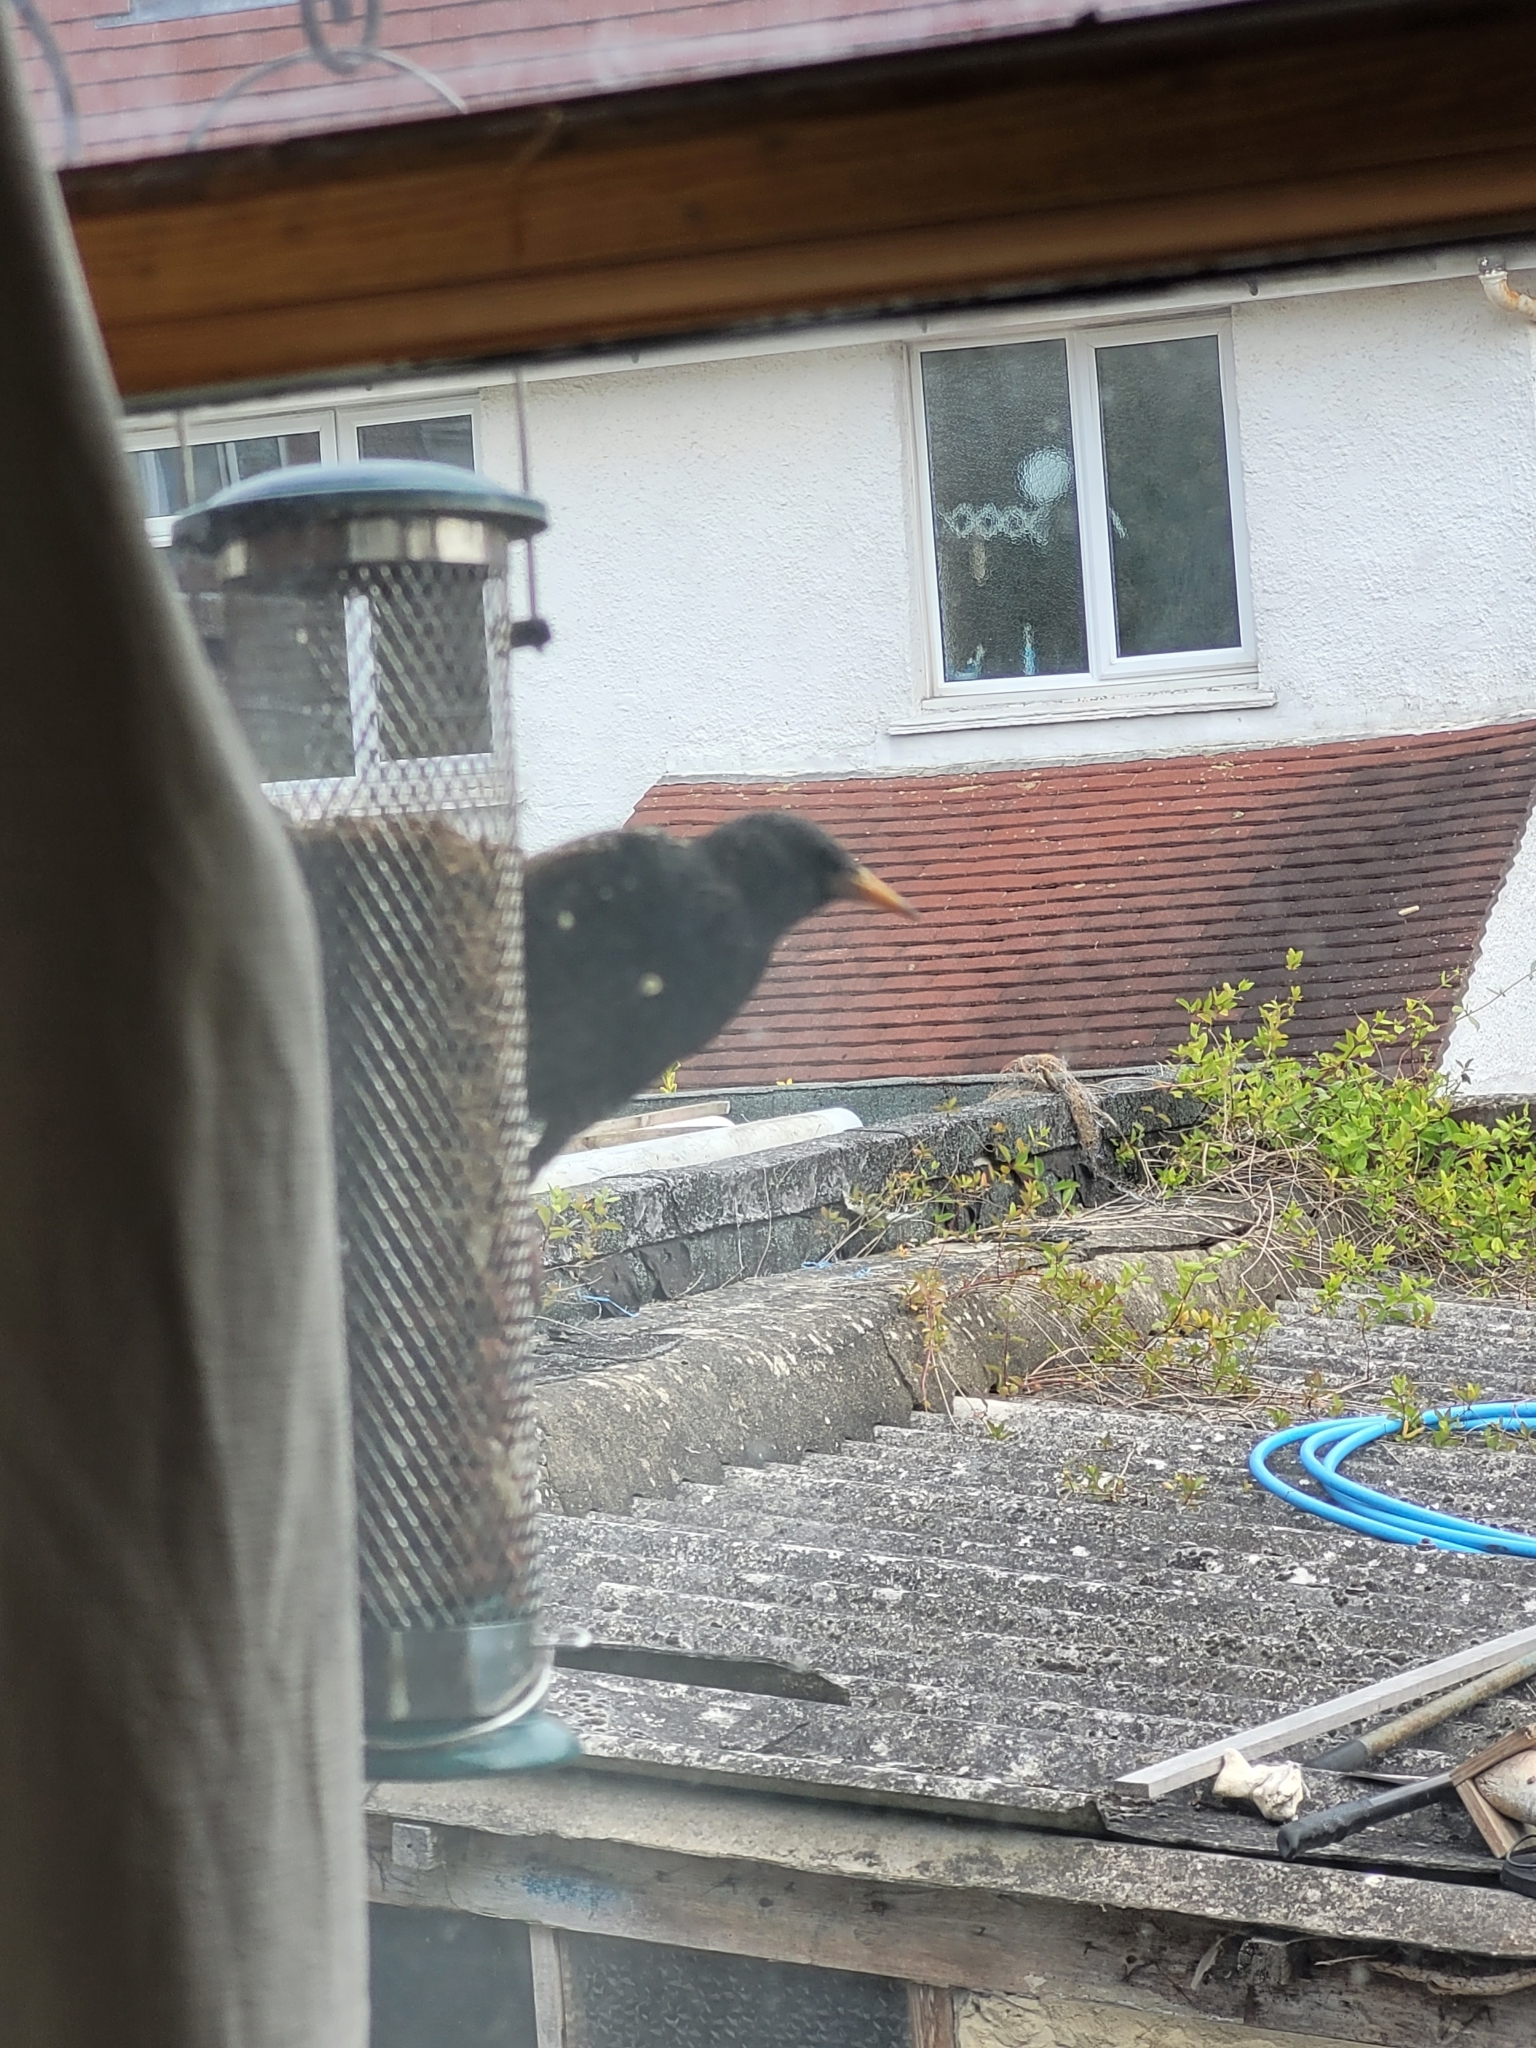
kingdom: Animalia
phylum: Chordata
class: Aves
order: Passeriformes
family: Sturnidae
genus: Sturnus
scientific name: Sturnus vulgaris
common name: Common starling
